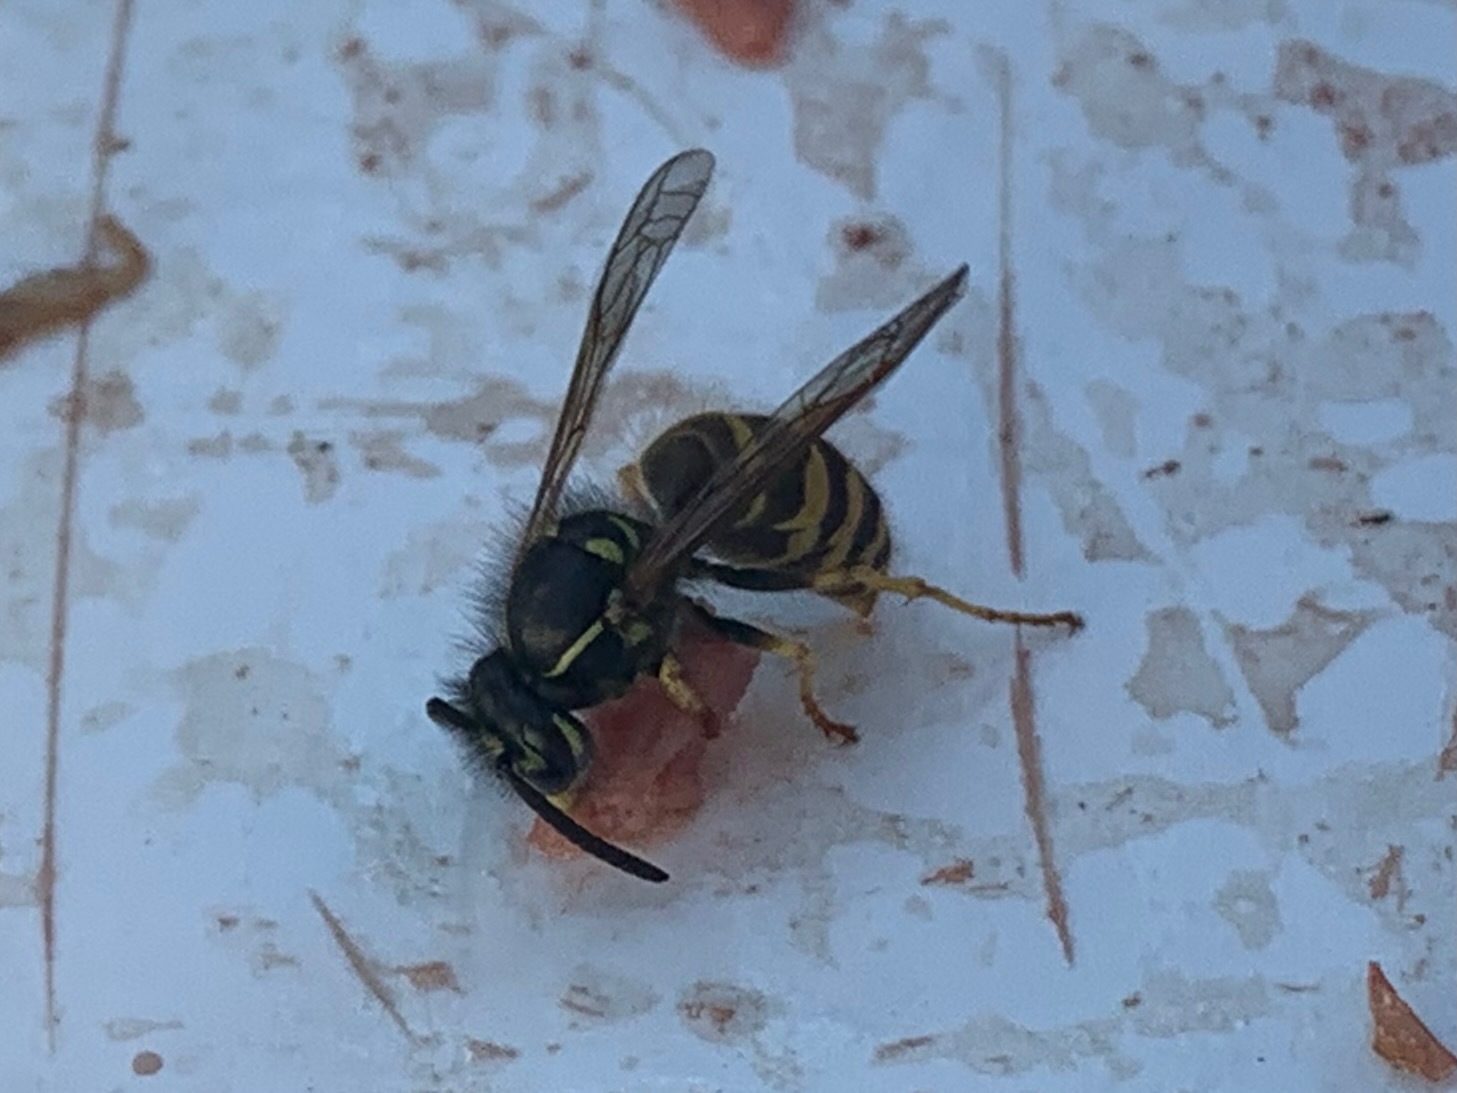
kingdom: Animalia
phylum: Arthropoda
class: Insecta
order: Hymenoptera
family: Vespidae
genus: Vespula
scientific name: Vespula alascensis
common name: Alaska yellowjacket
